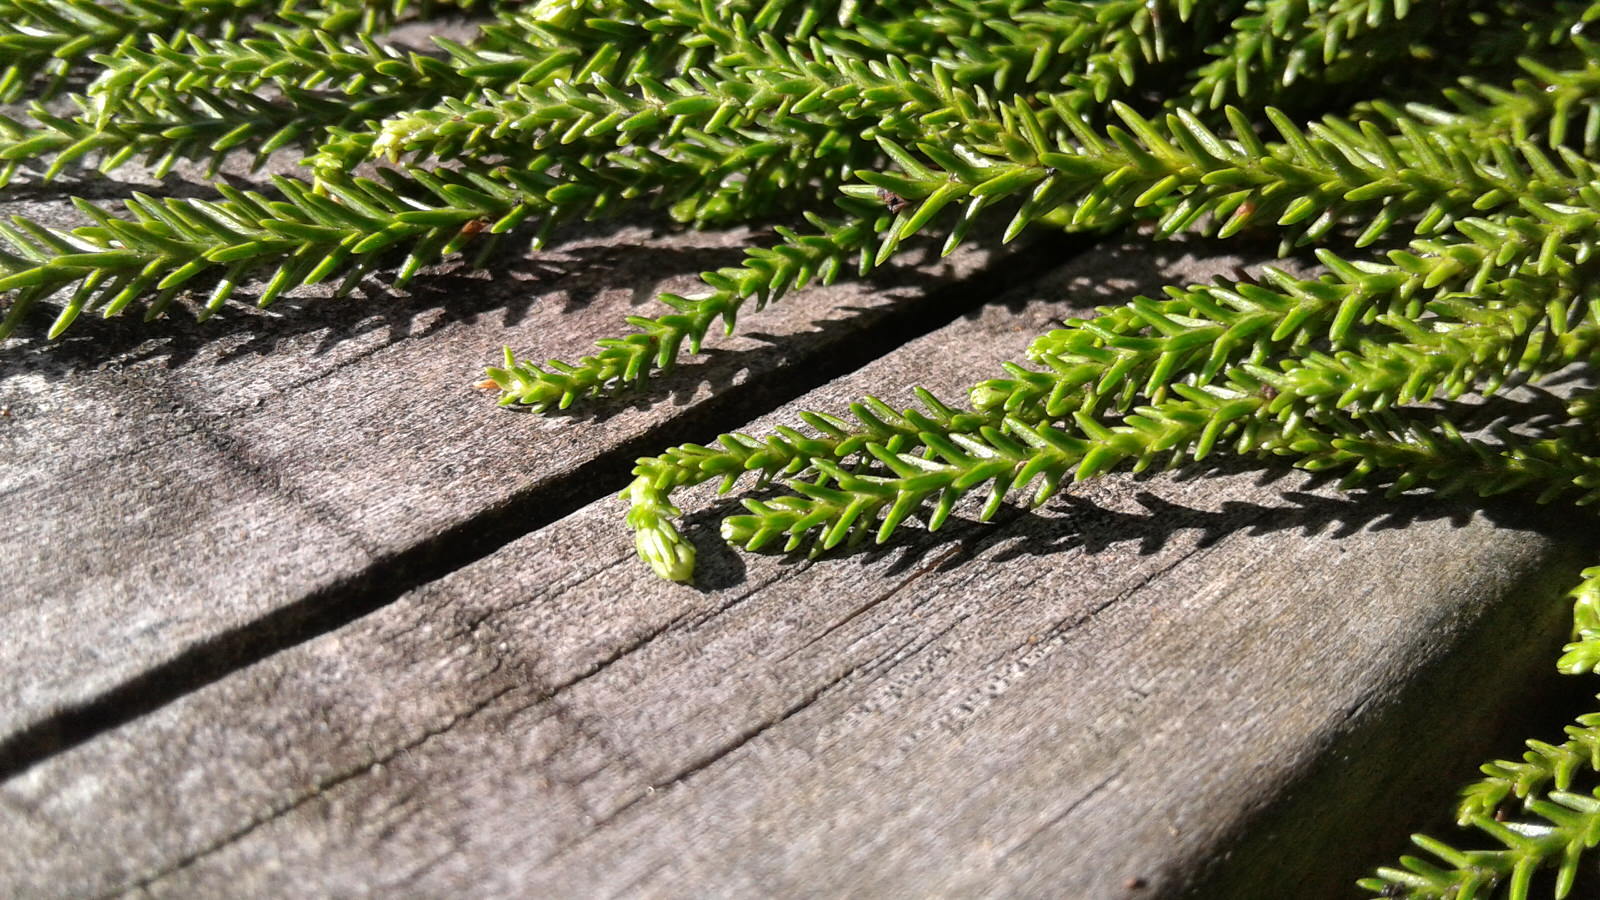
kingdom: Plantae
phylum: Tracheophyta
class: Pinopsida
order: Pinales
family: Podocarpaceae
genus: Dacrydium
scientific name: Dacrydium cupressinum
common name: Red pine
